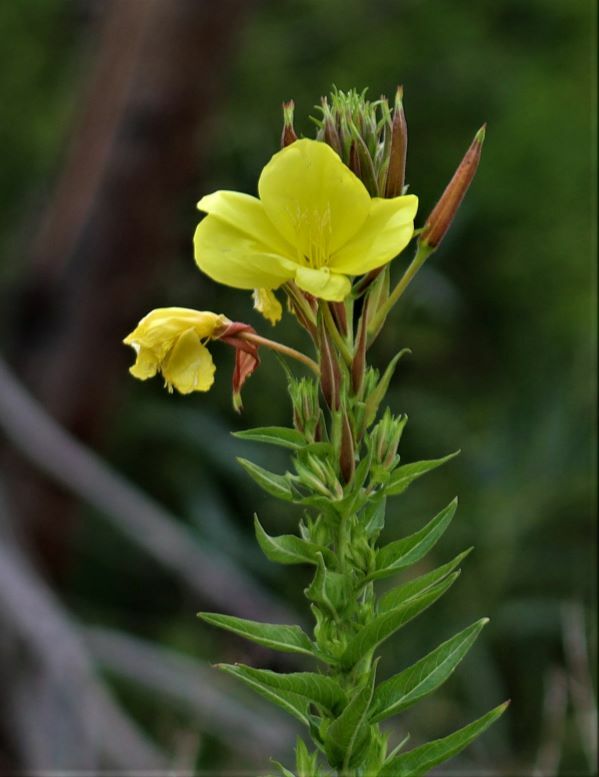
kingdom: Plantae
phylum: Tracheophyta
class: Magnoliopsida
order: Myrtales
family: Onagraceae
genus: Oenothera
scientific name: Oenothera glazioviana
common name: Large-flowered evening-primrose
